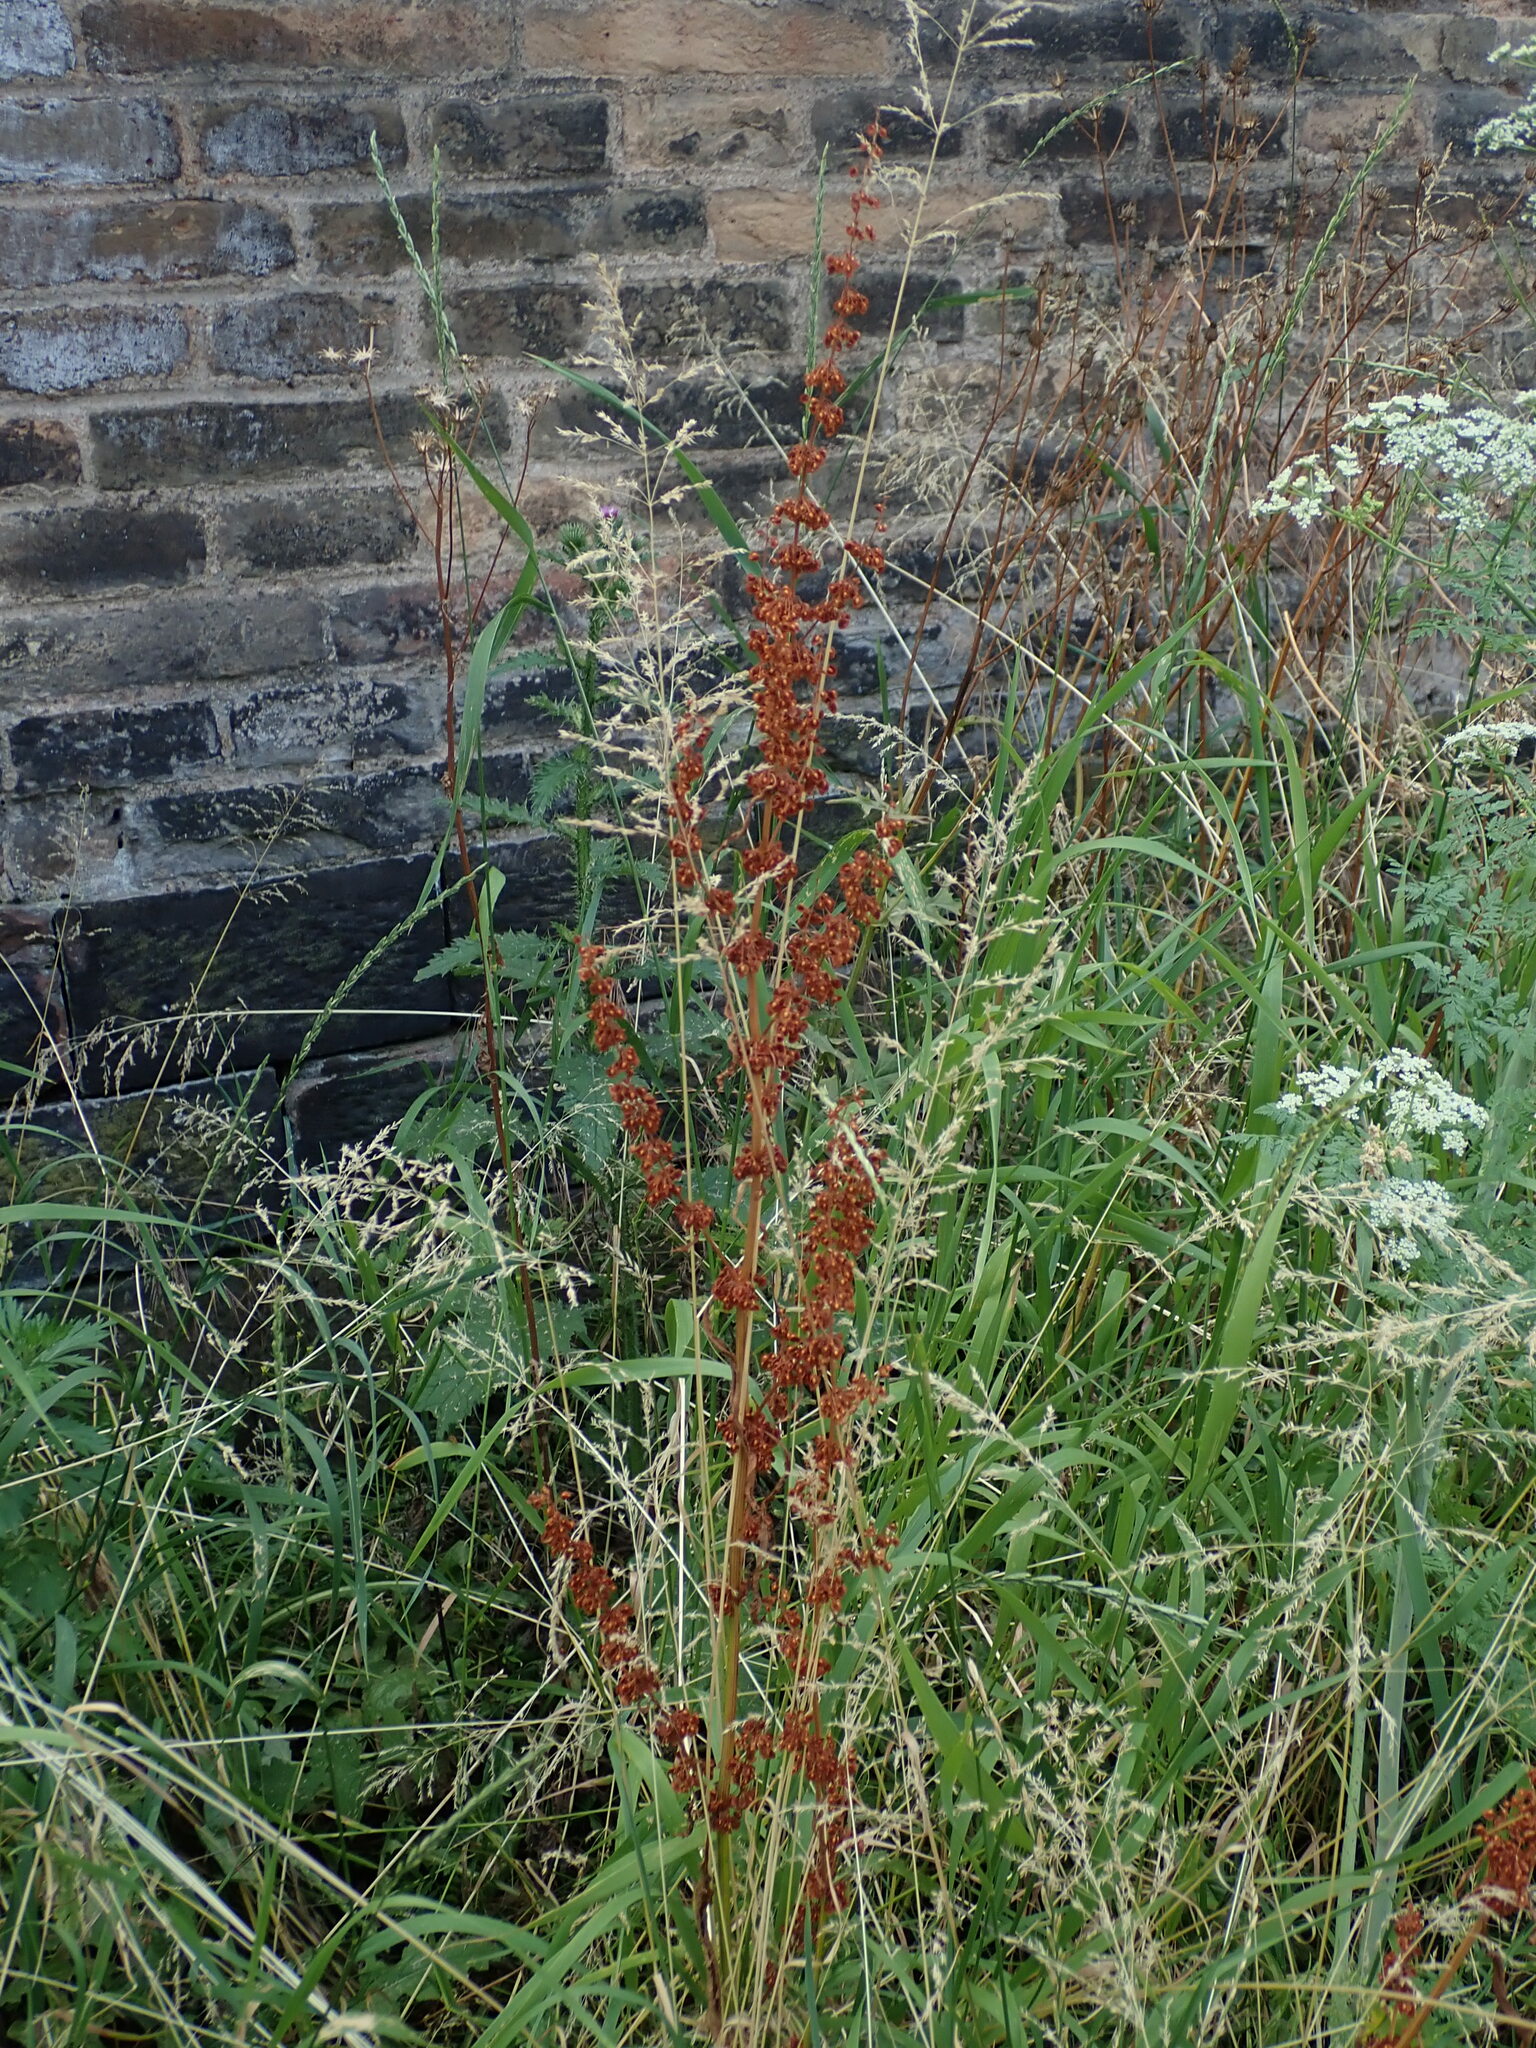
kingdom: Plantae
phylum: Tracheophyta
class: Magnoliopsida
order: Caryophyllales
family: Polygonaceae
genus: Rumex
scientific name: Rumex crispus
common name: Curled dock
